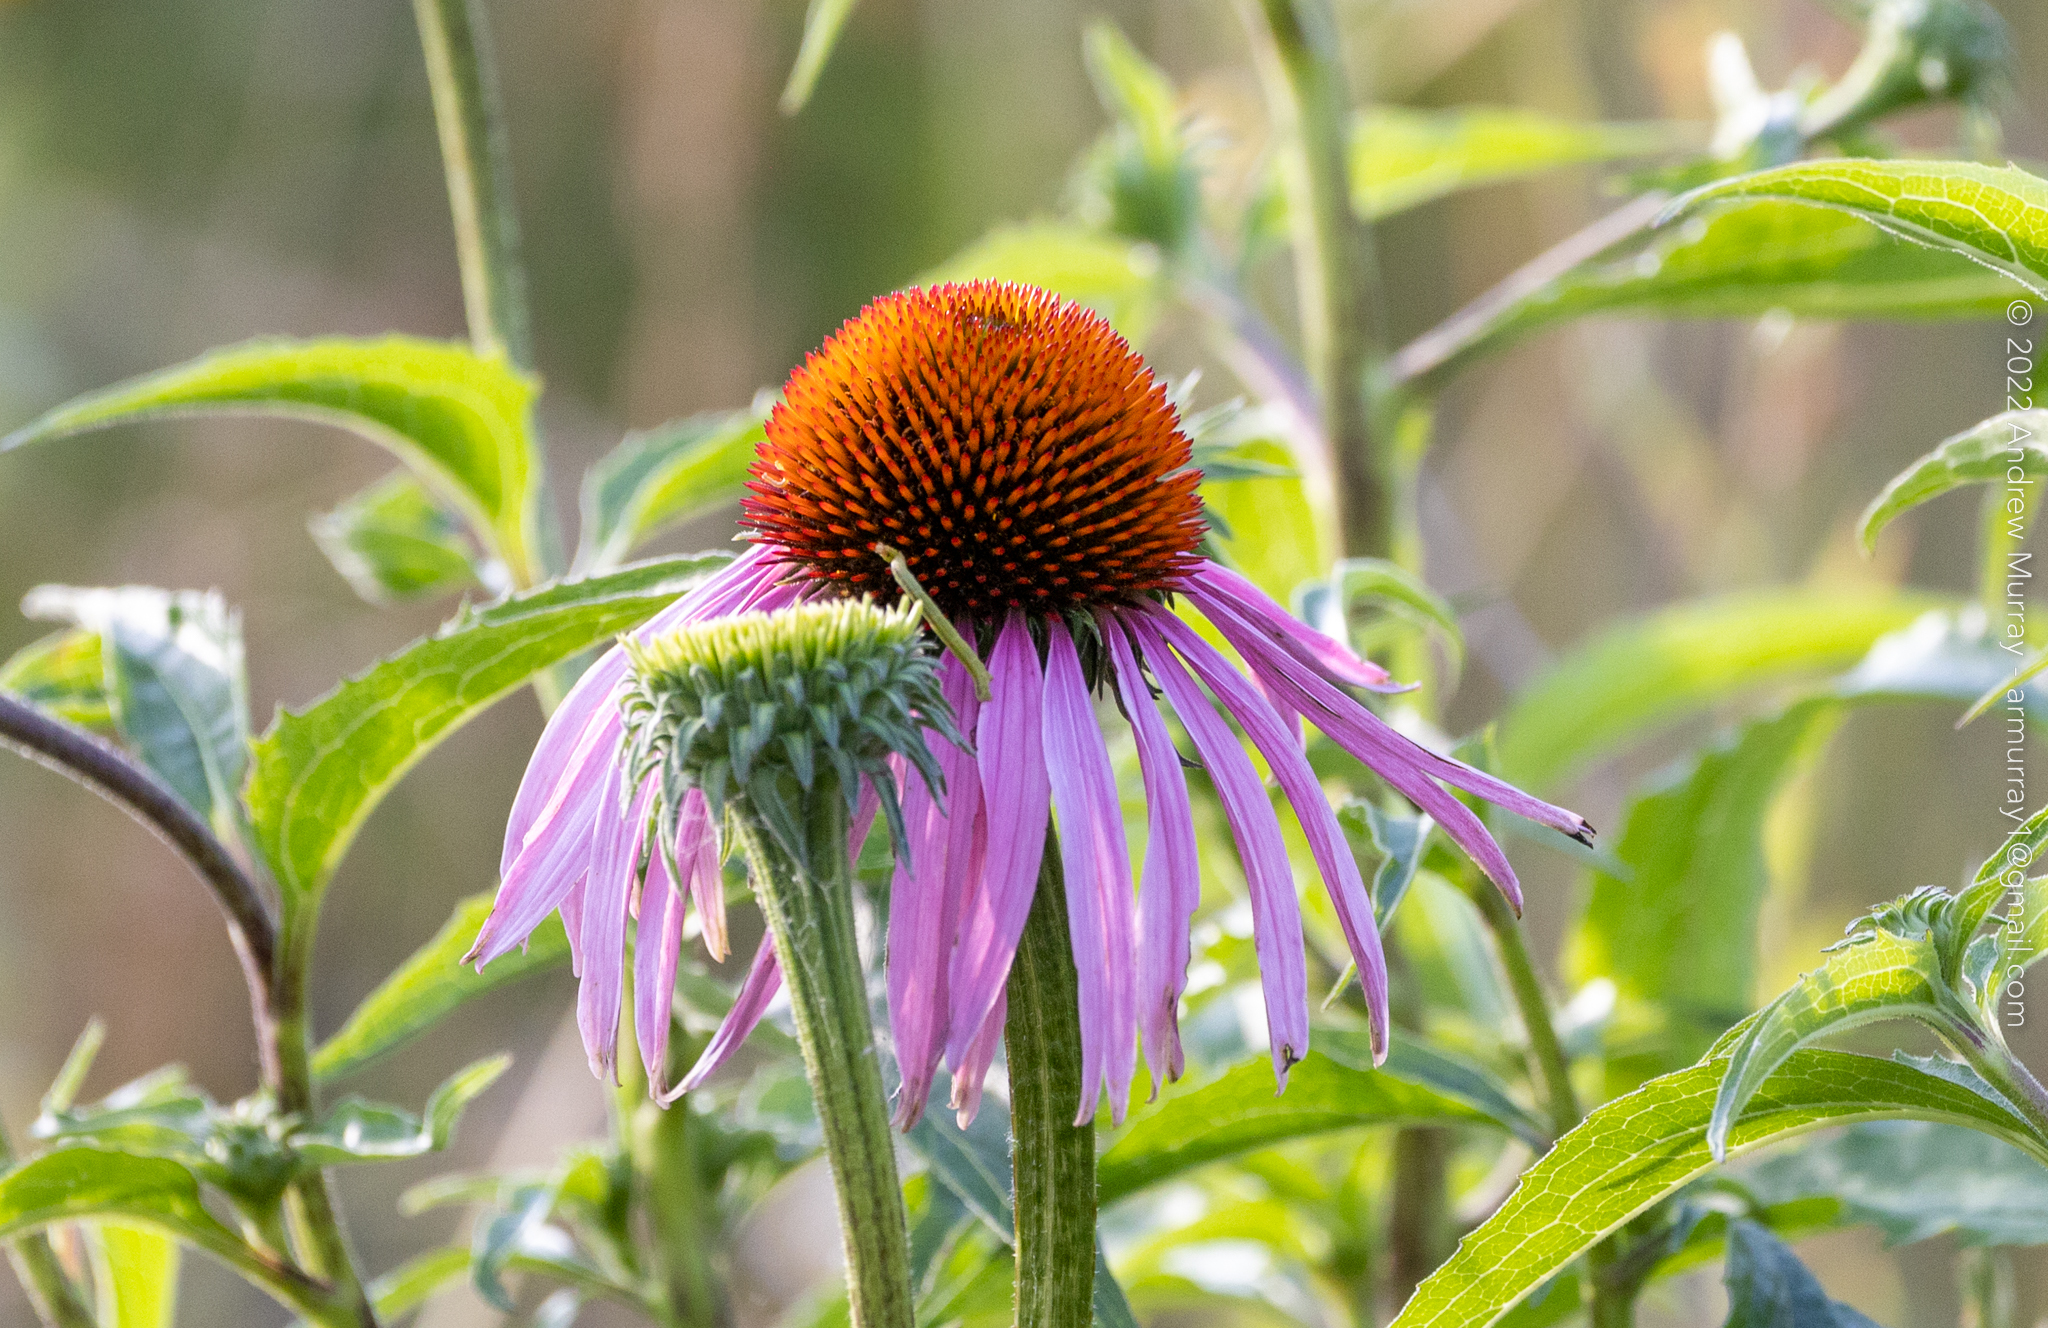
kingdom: Plantae
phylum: Tracheophyta
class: Magnoliopsida
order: Asterales
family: Asteraceae
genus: Echinacea
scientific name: Echinacea purpurea
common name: Broad-leaved purple coneflower
